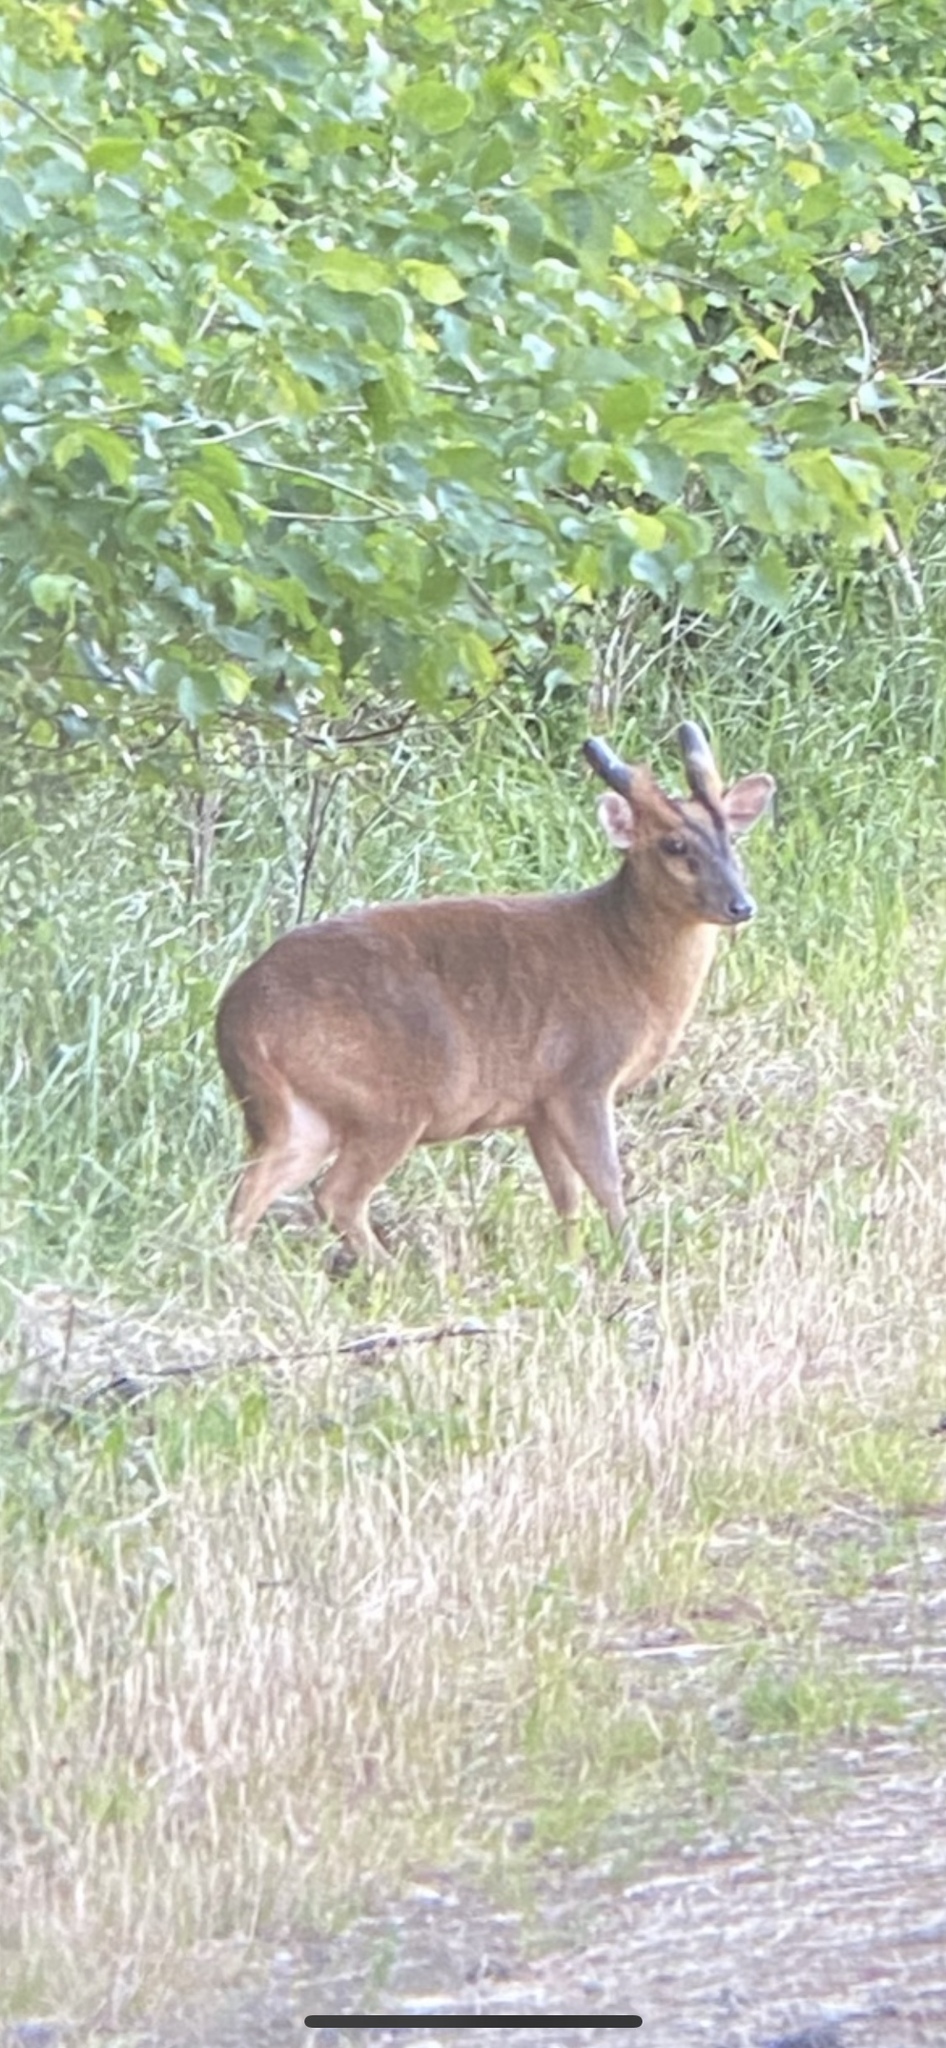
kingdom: Animalia
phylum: Chordata
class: Mammalia
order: Artiodactyla
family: Cervidae
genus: Muntiacus
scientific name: Muntiacus reevesi
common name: Reeves' muntjac
